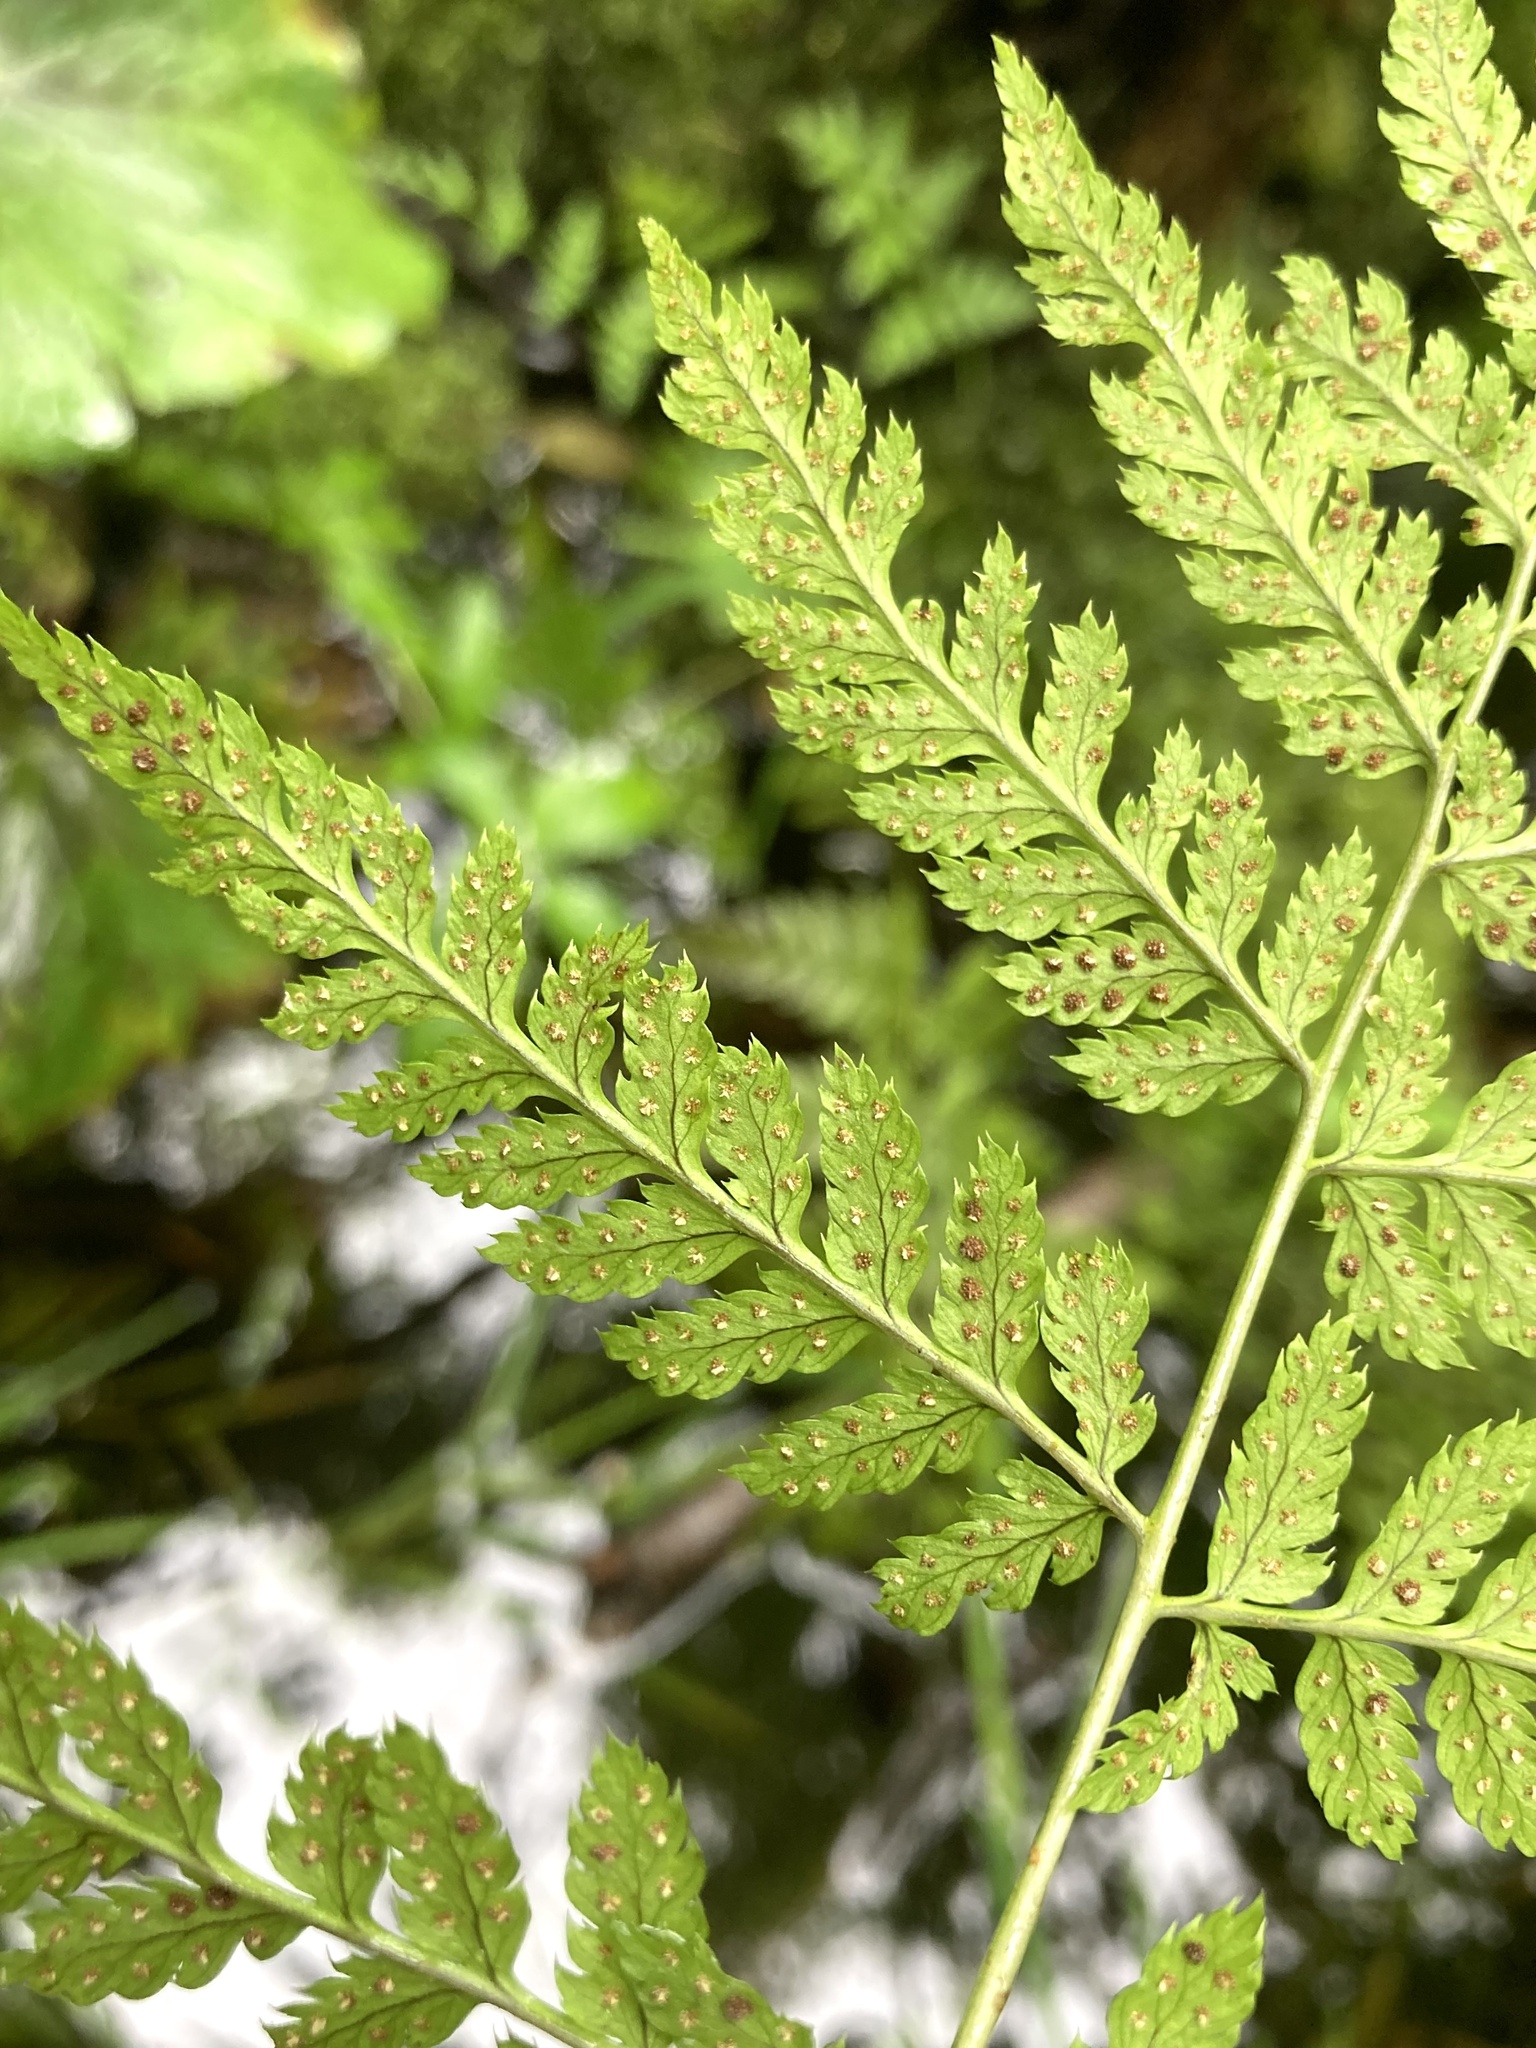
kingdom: Plantae
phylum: Tracheophyta
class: Polypodiopsida
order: Polypodiales
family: Dryopteridaceae
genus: Dryopteris
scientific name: Dryopteris carthusiana
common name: Narrow buckler-fern
